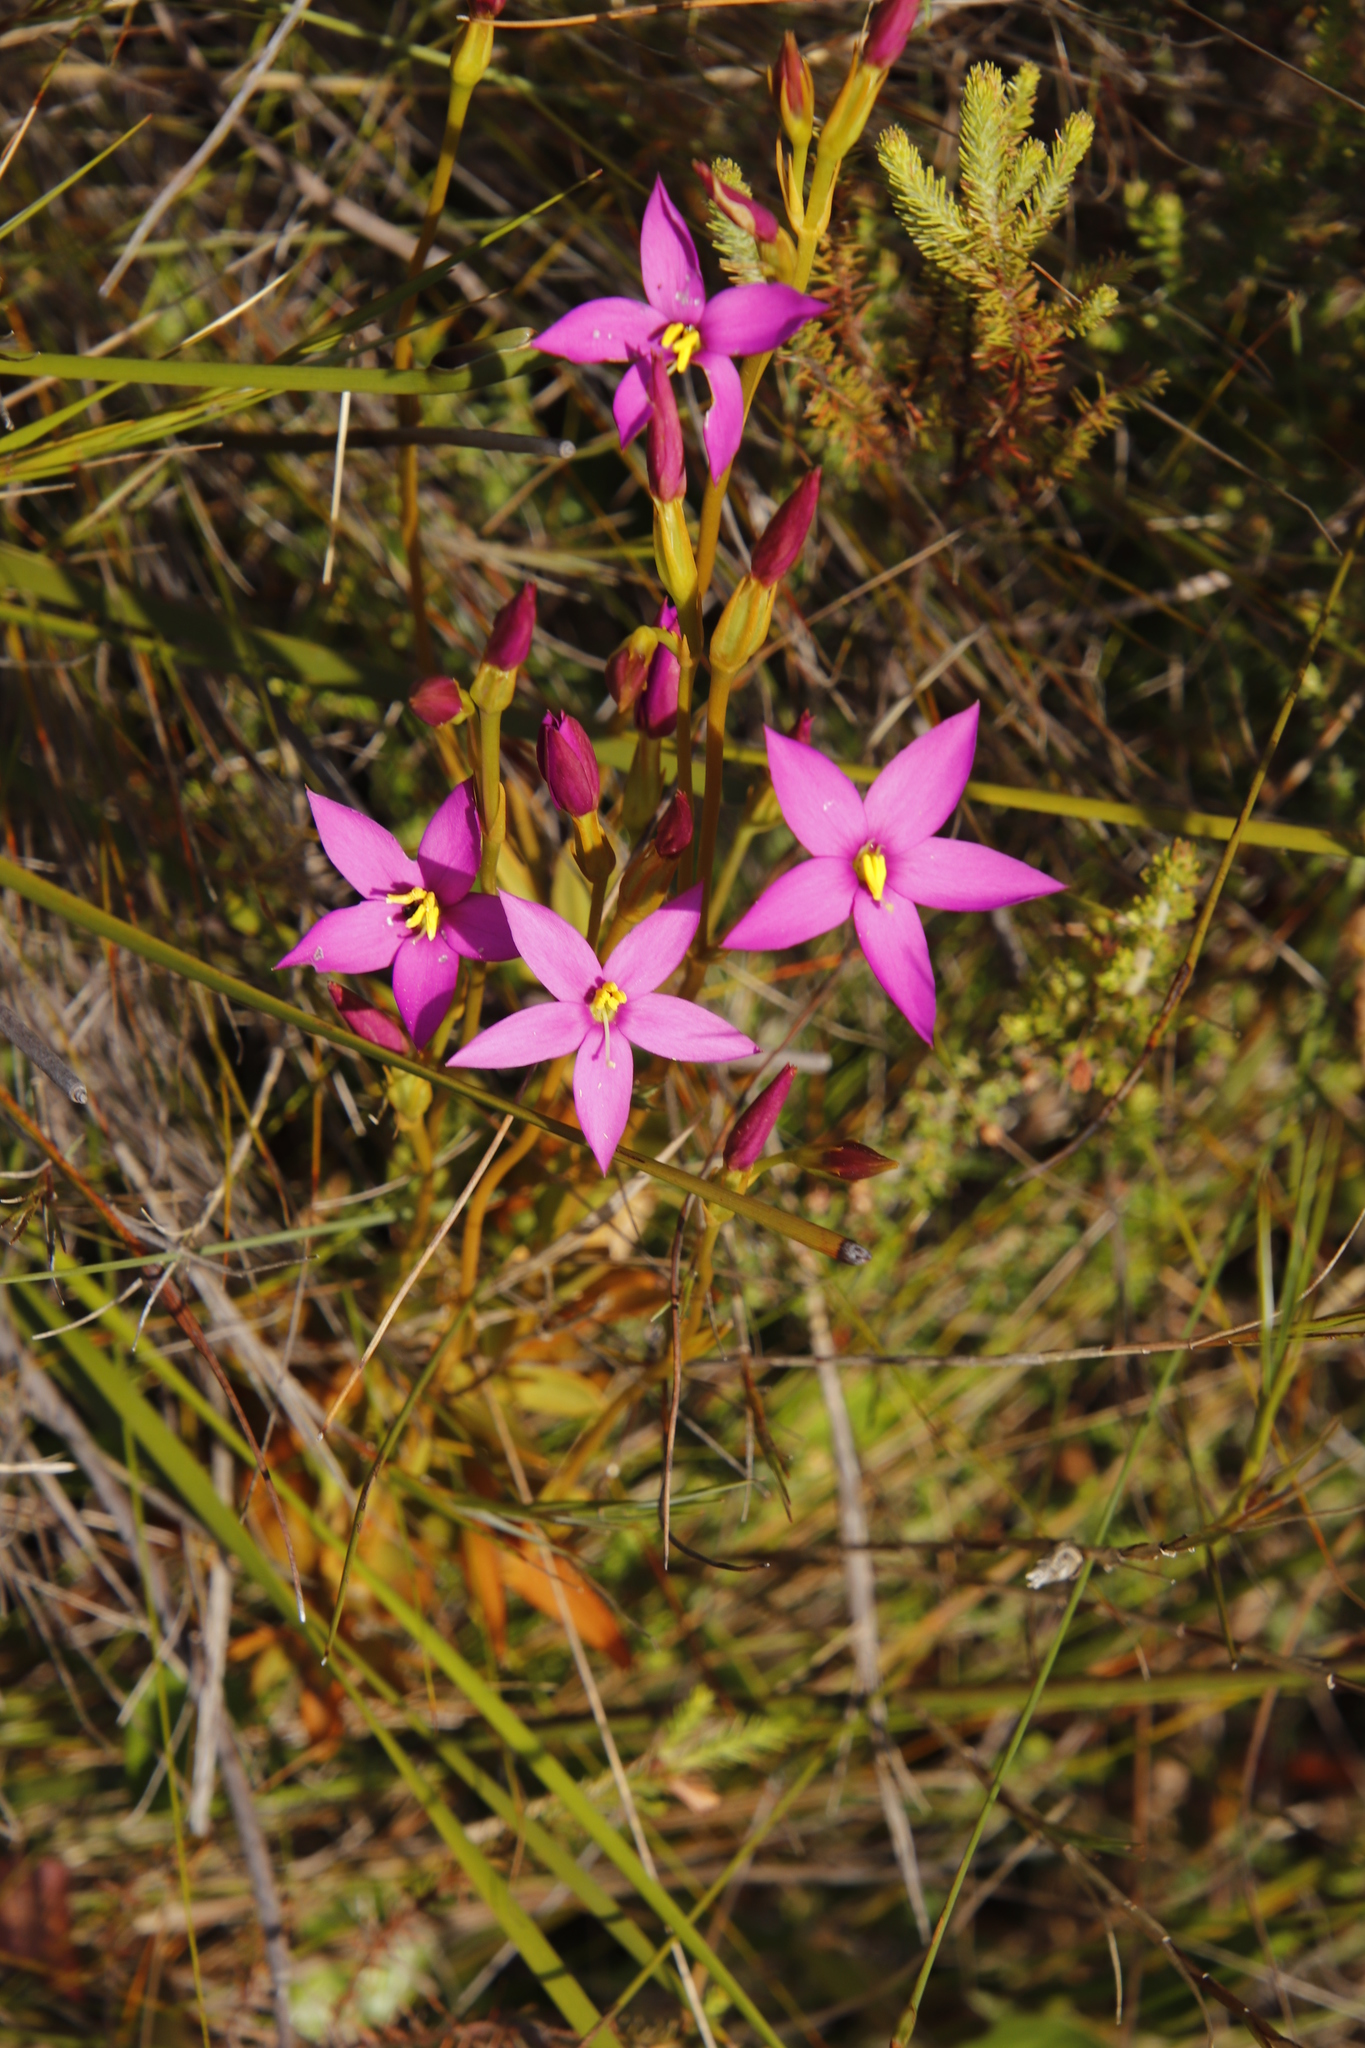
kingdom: Plantae
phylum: Tracheophyta
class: Magnoliopsida
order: Gentianales
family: Gentianaceae
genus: Chironia
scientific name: Chironia jasminoides
